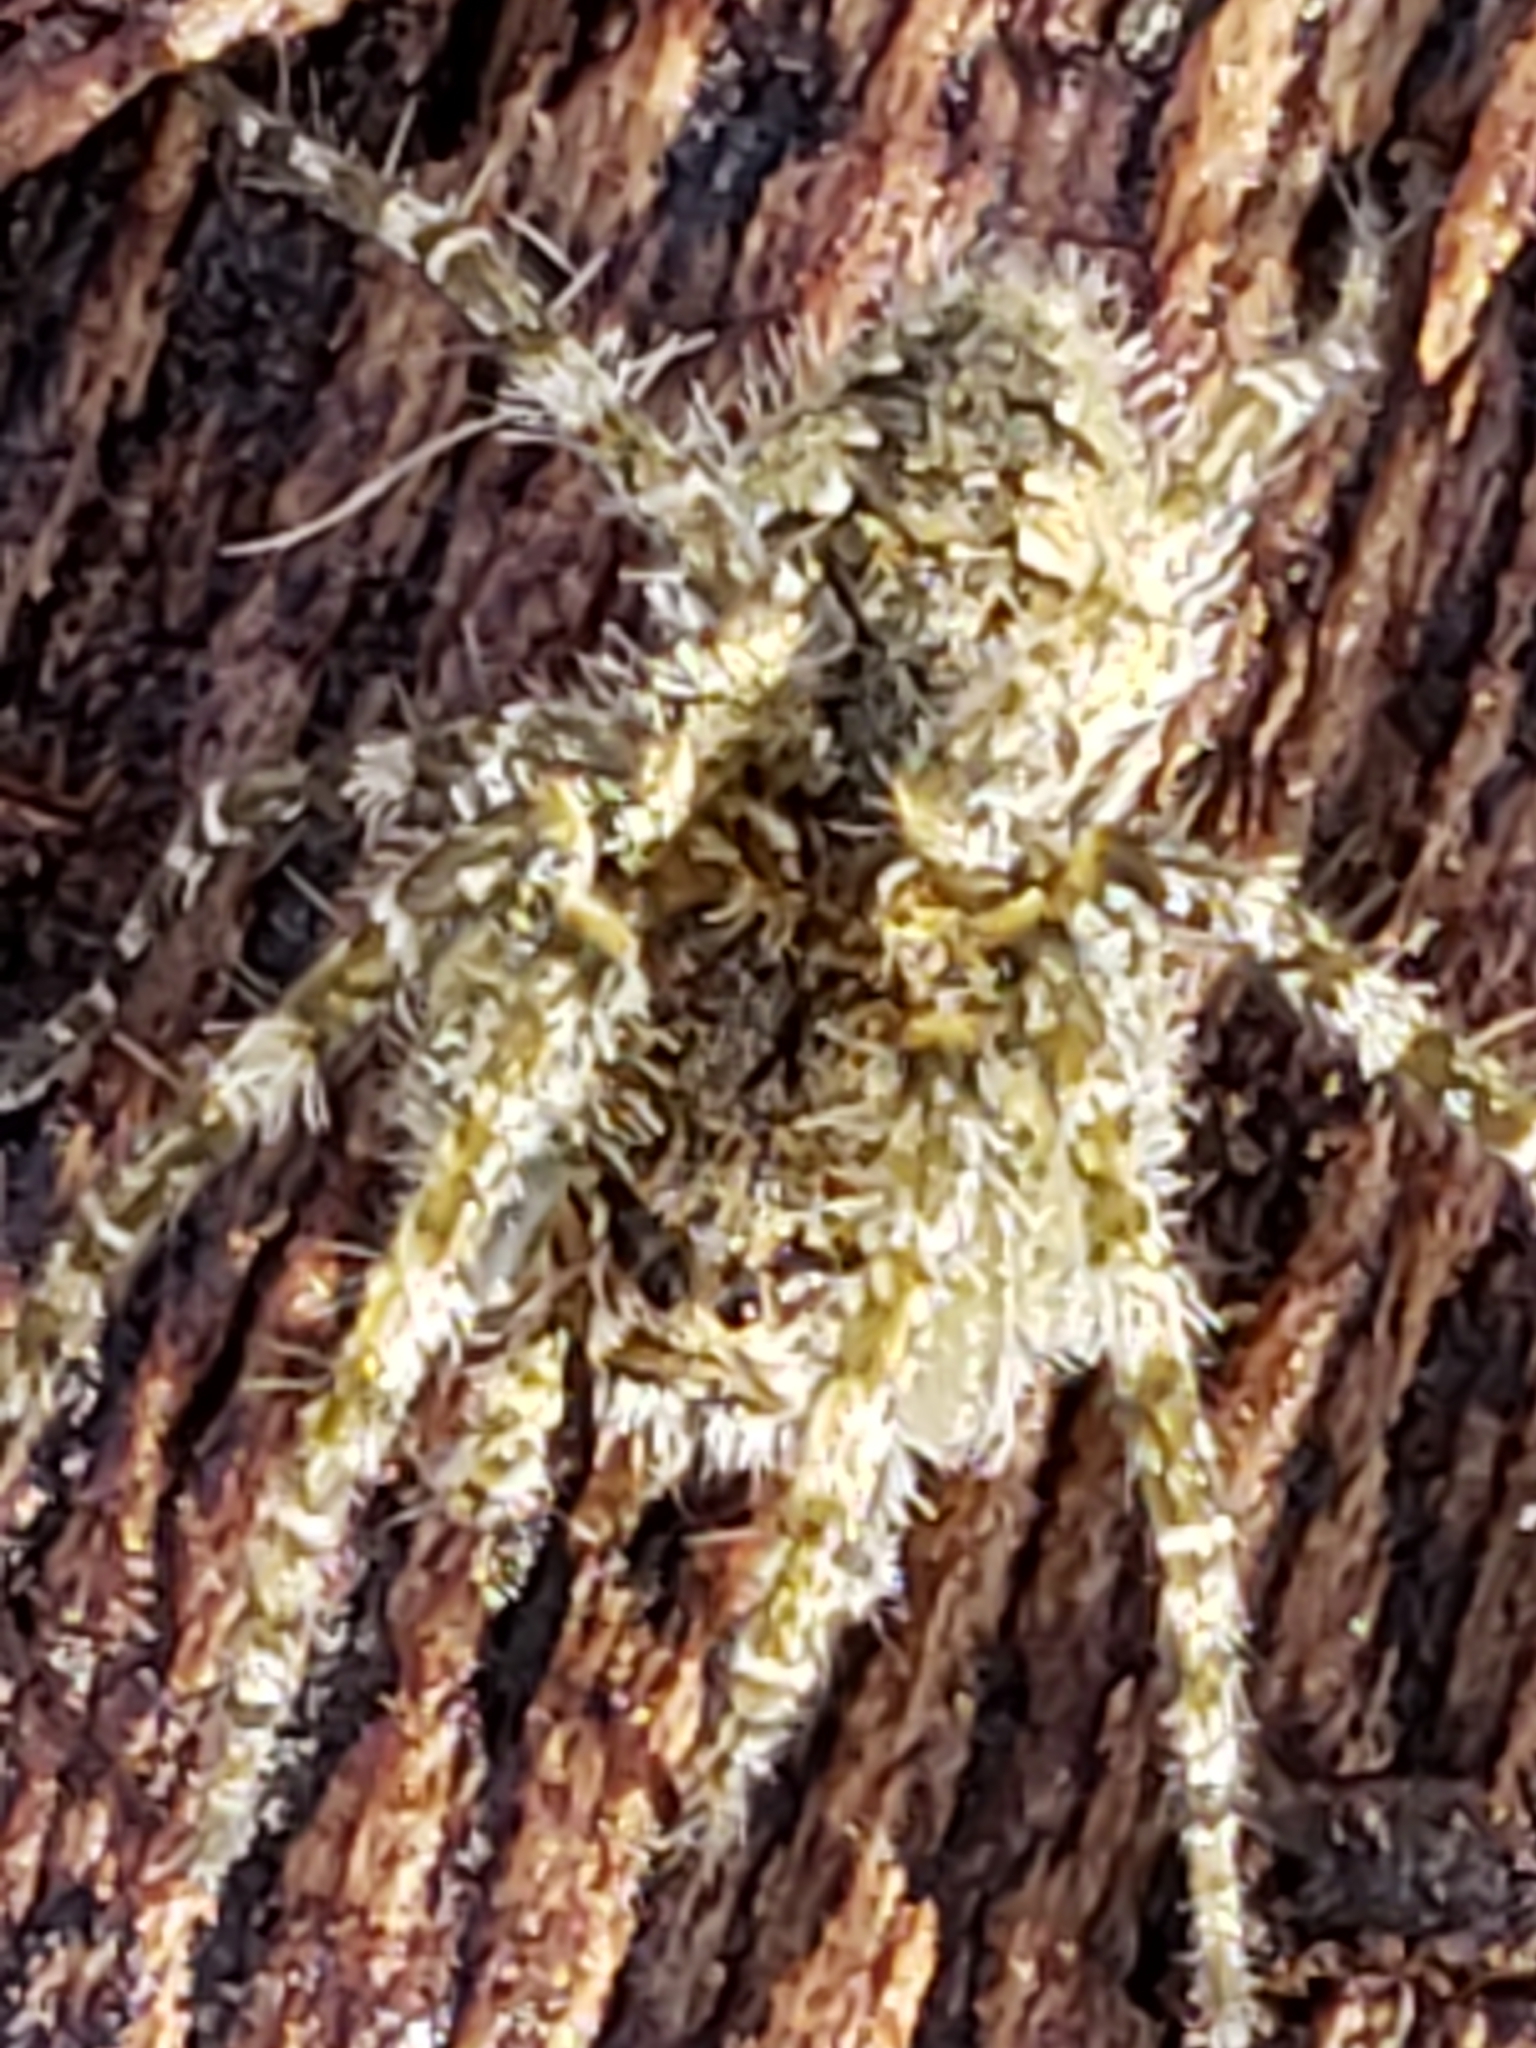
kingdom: Animalia
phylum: Arthropoda
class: Arachnida
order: Araneae
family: Pisauridae
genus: Dolomedes
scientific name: Dolomedes albineus
